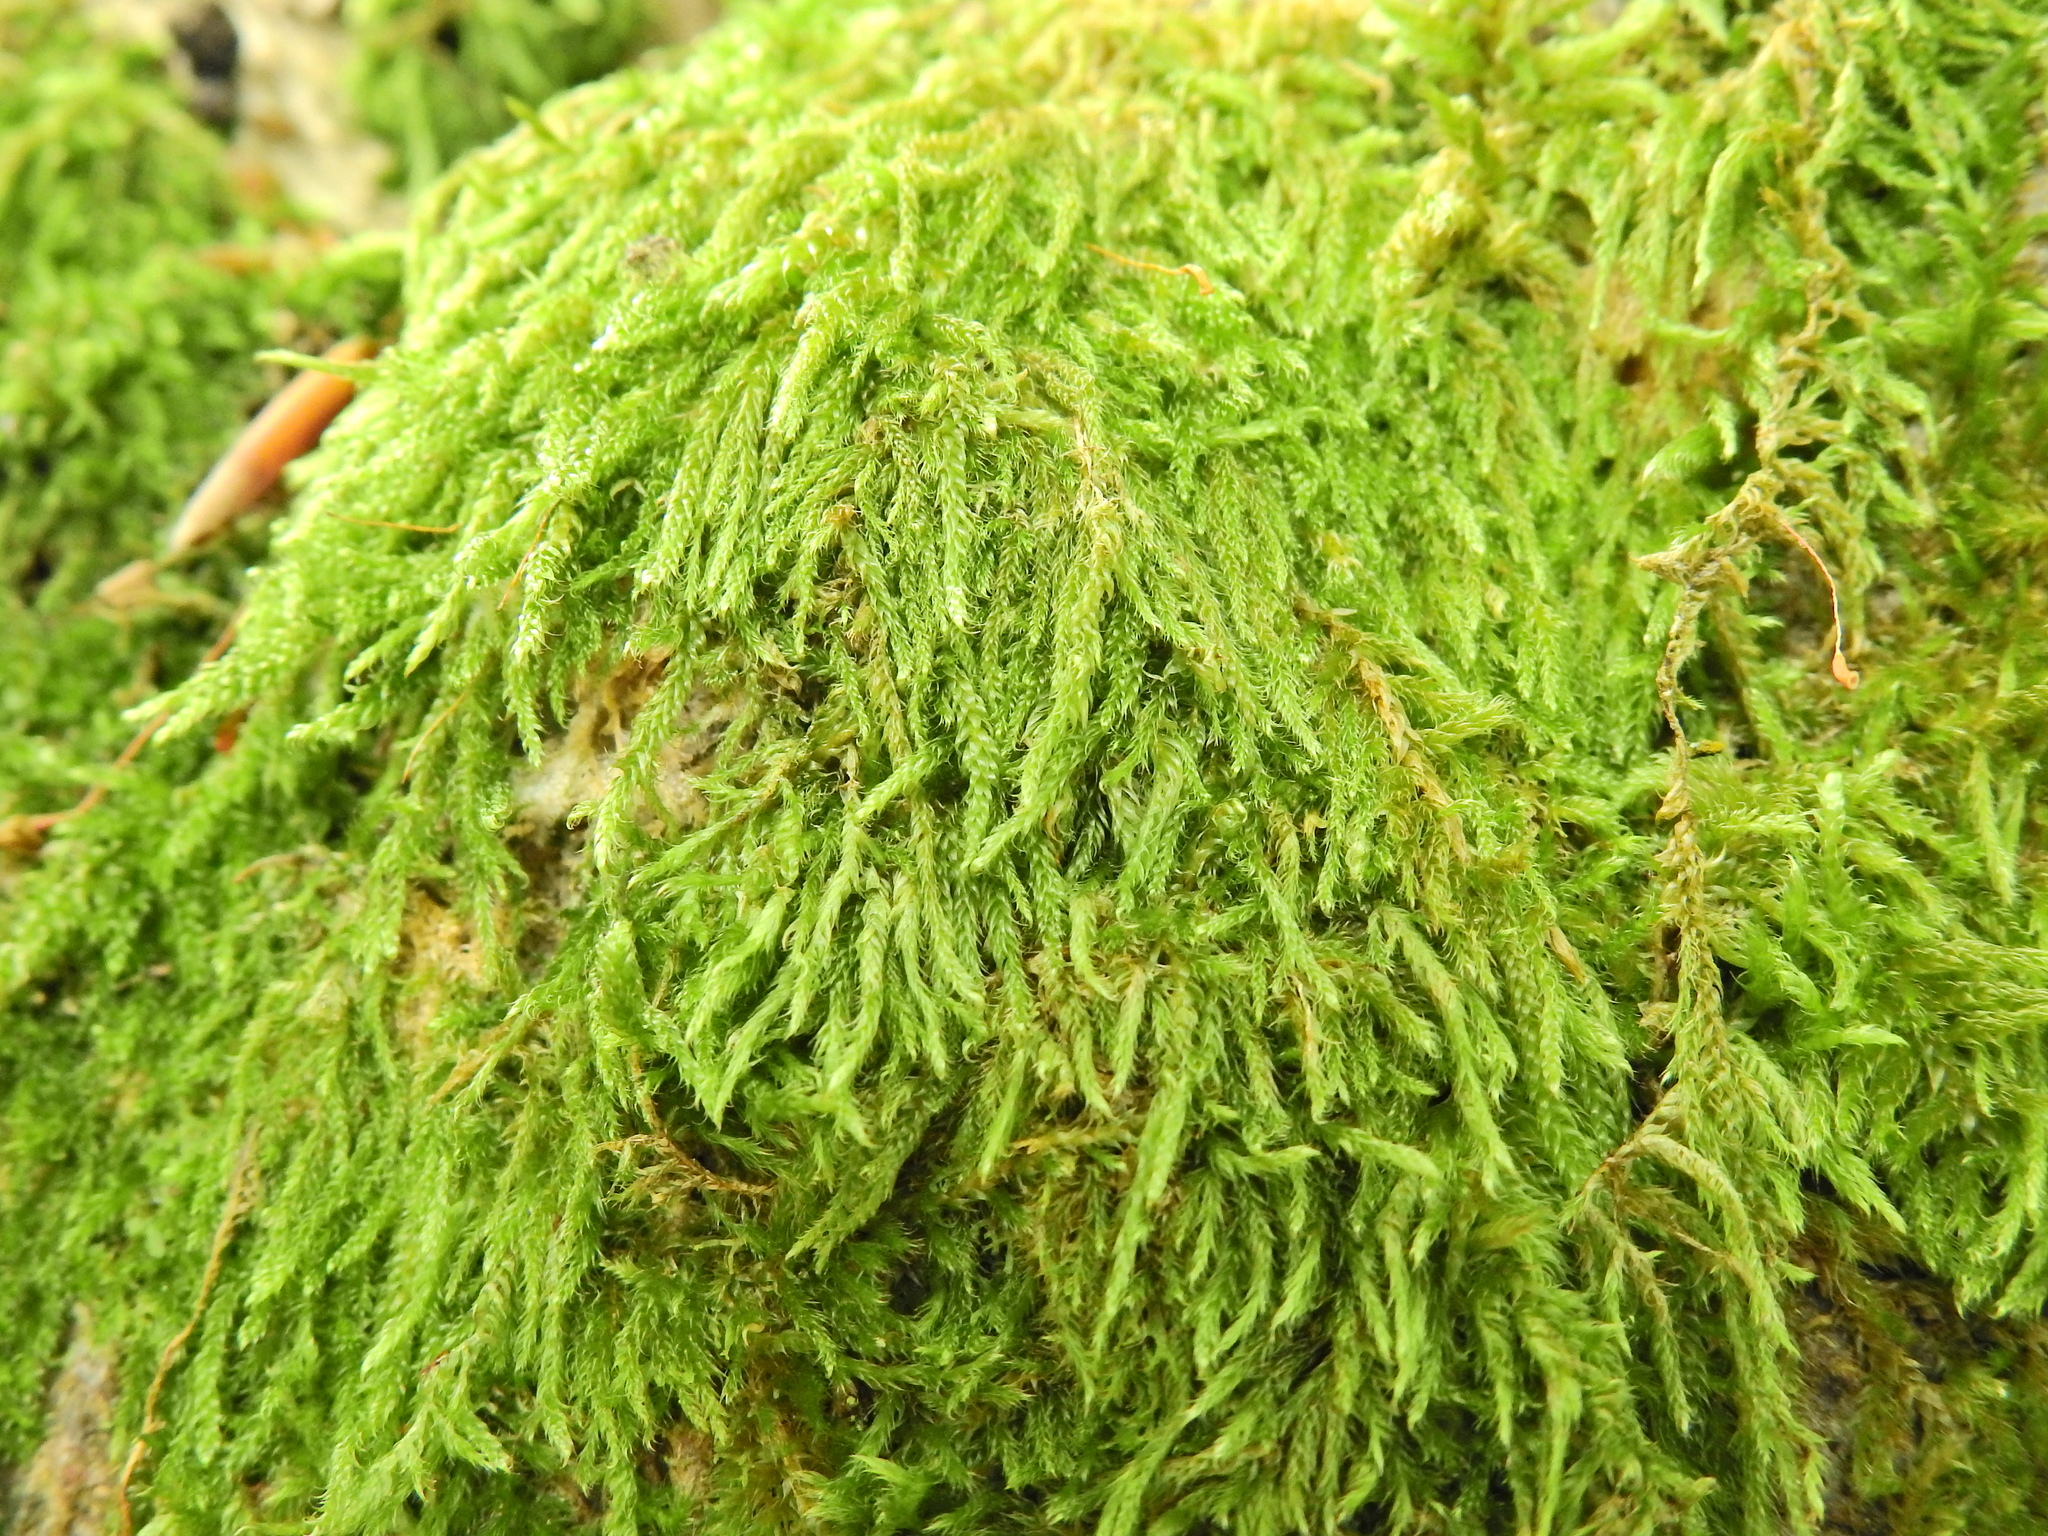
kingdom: Plantae
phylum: Bryophyta
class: Bryopsida
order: Hypnales
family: Hypnaceae
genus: Hypnum
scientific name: Hypnum cupressiforme
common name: Cypress-leaved plait-moss
